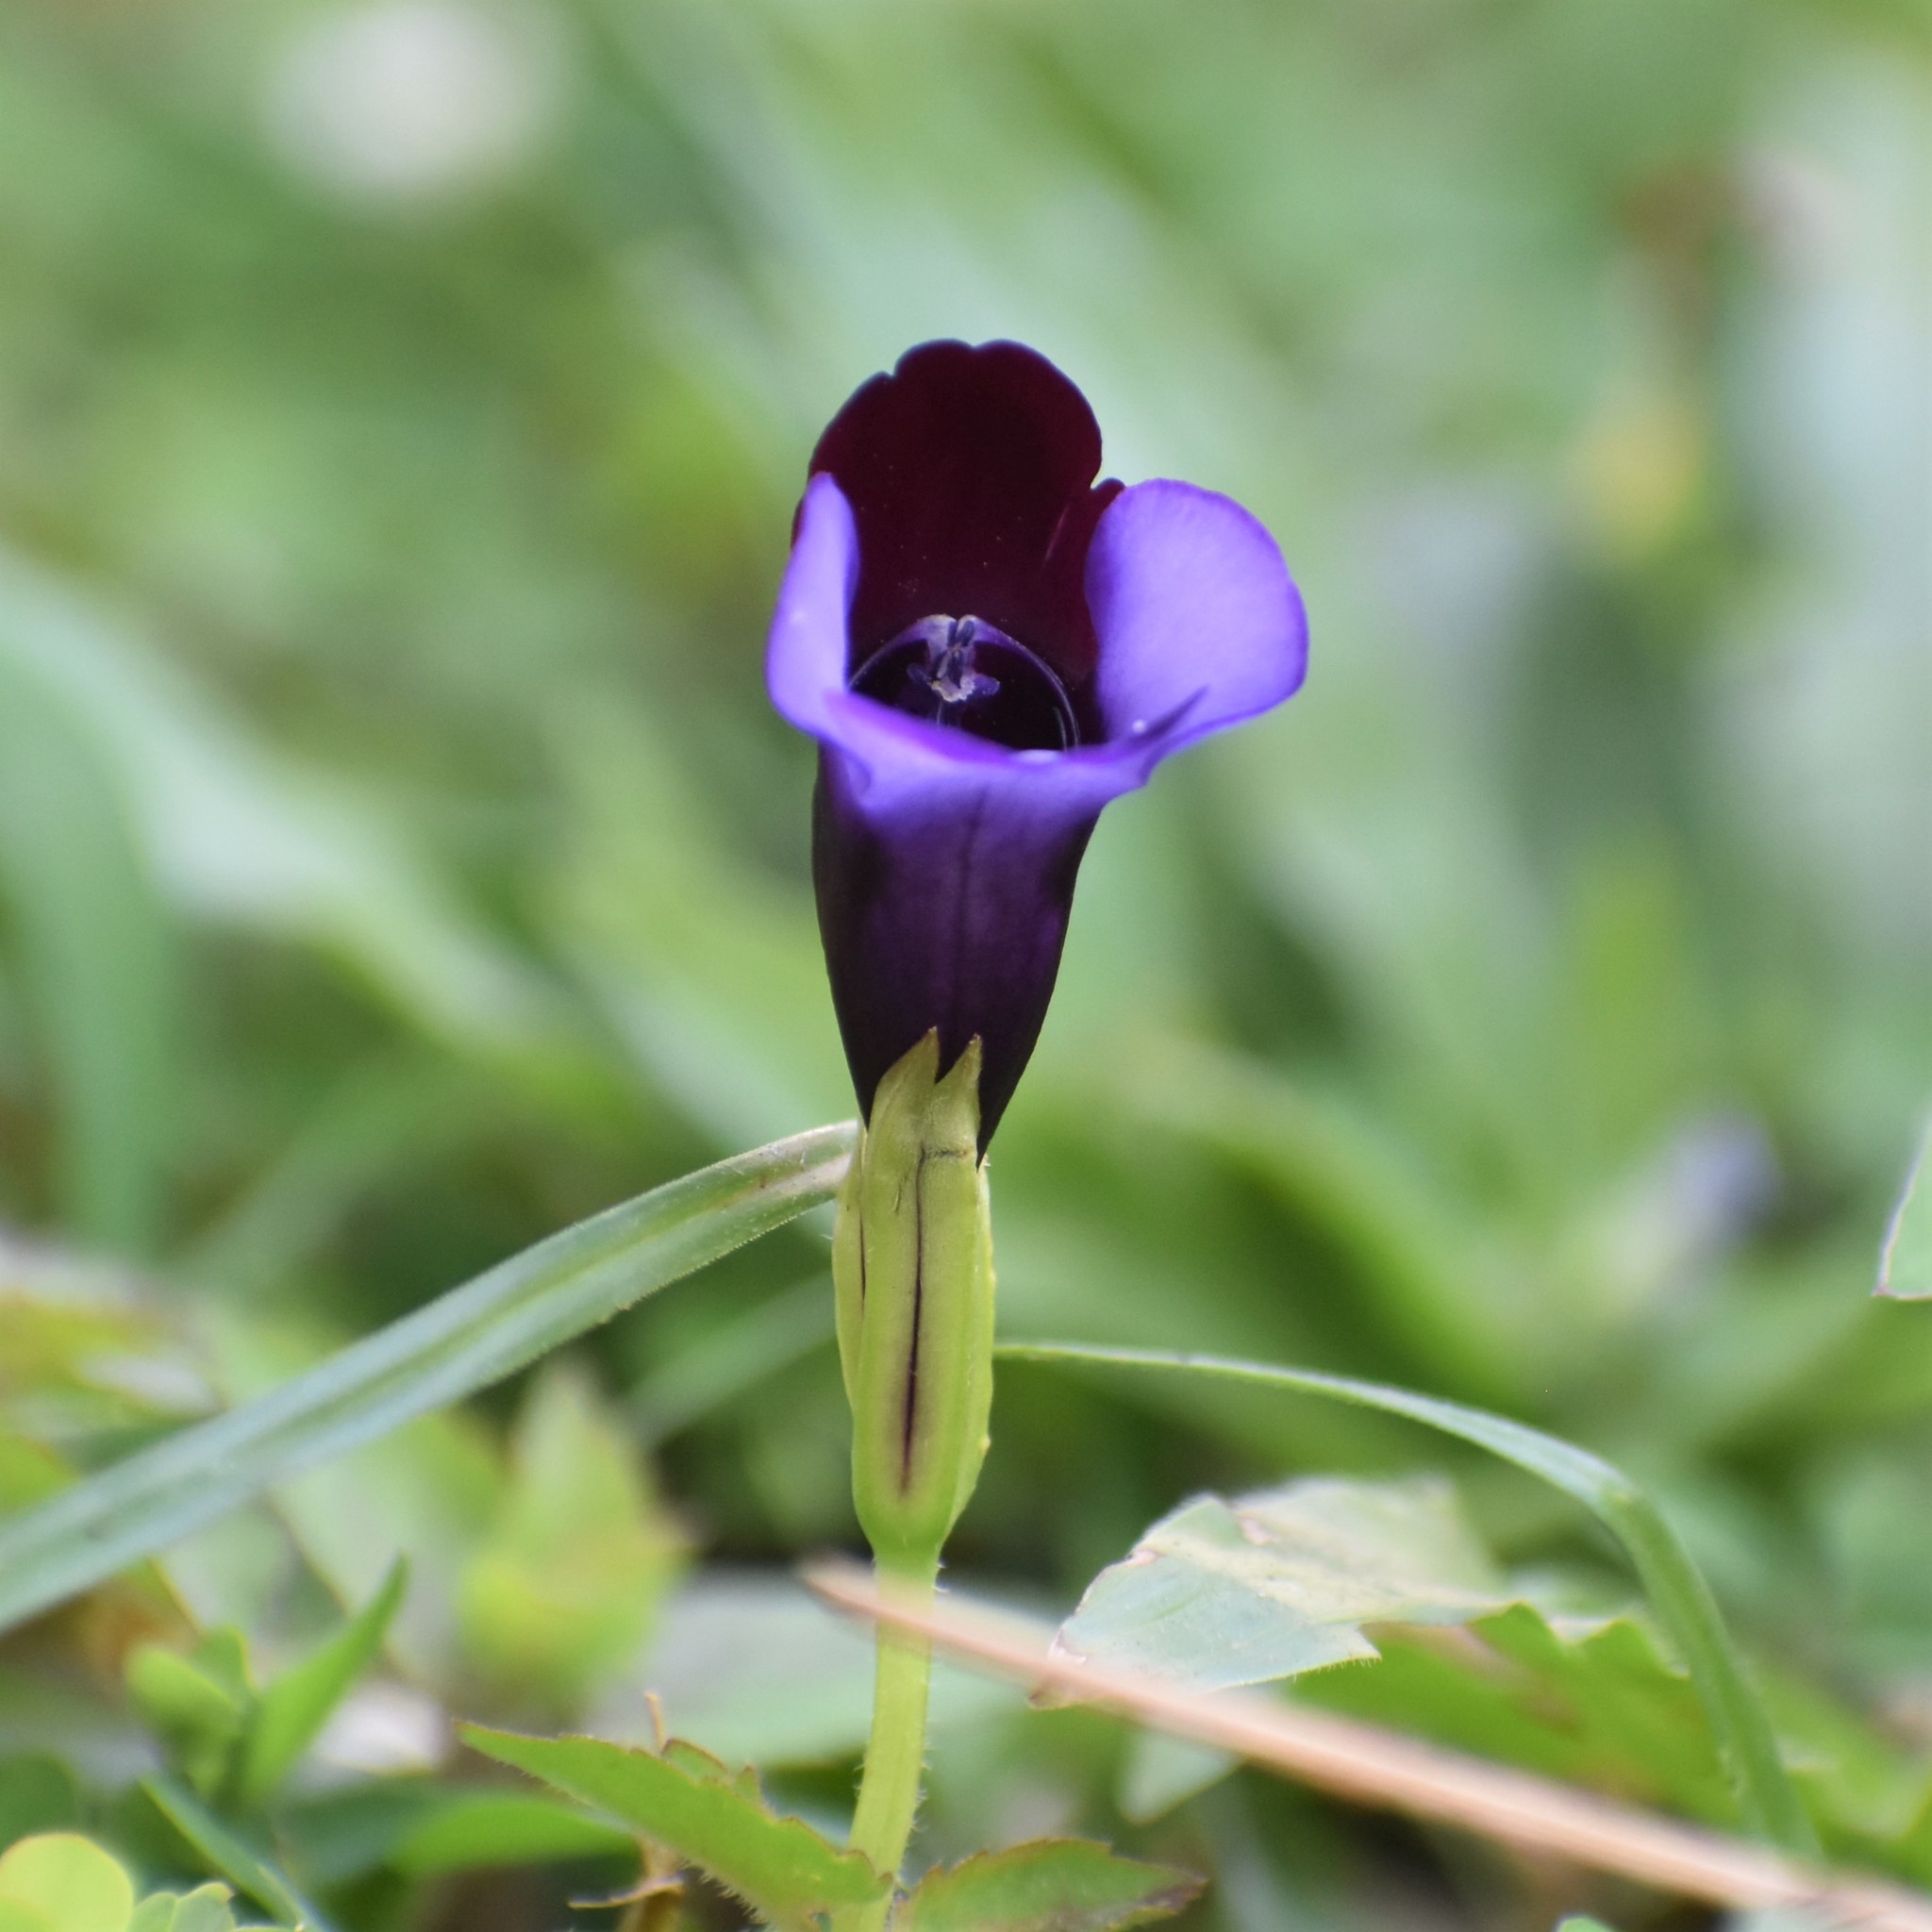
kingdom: Plantae
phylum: Tracheophyta
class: Magnoliopsida
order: Lamiales
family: Linderniaceae
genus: Torenia
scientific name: Torenia fournieri
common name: Bluewings
